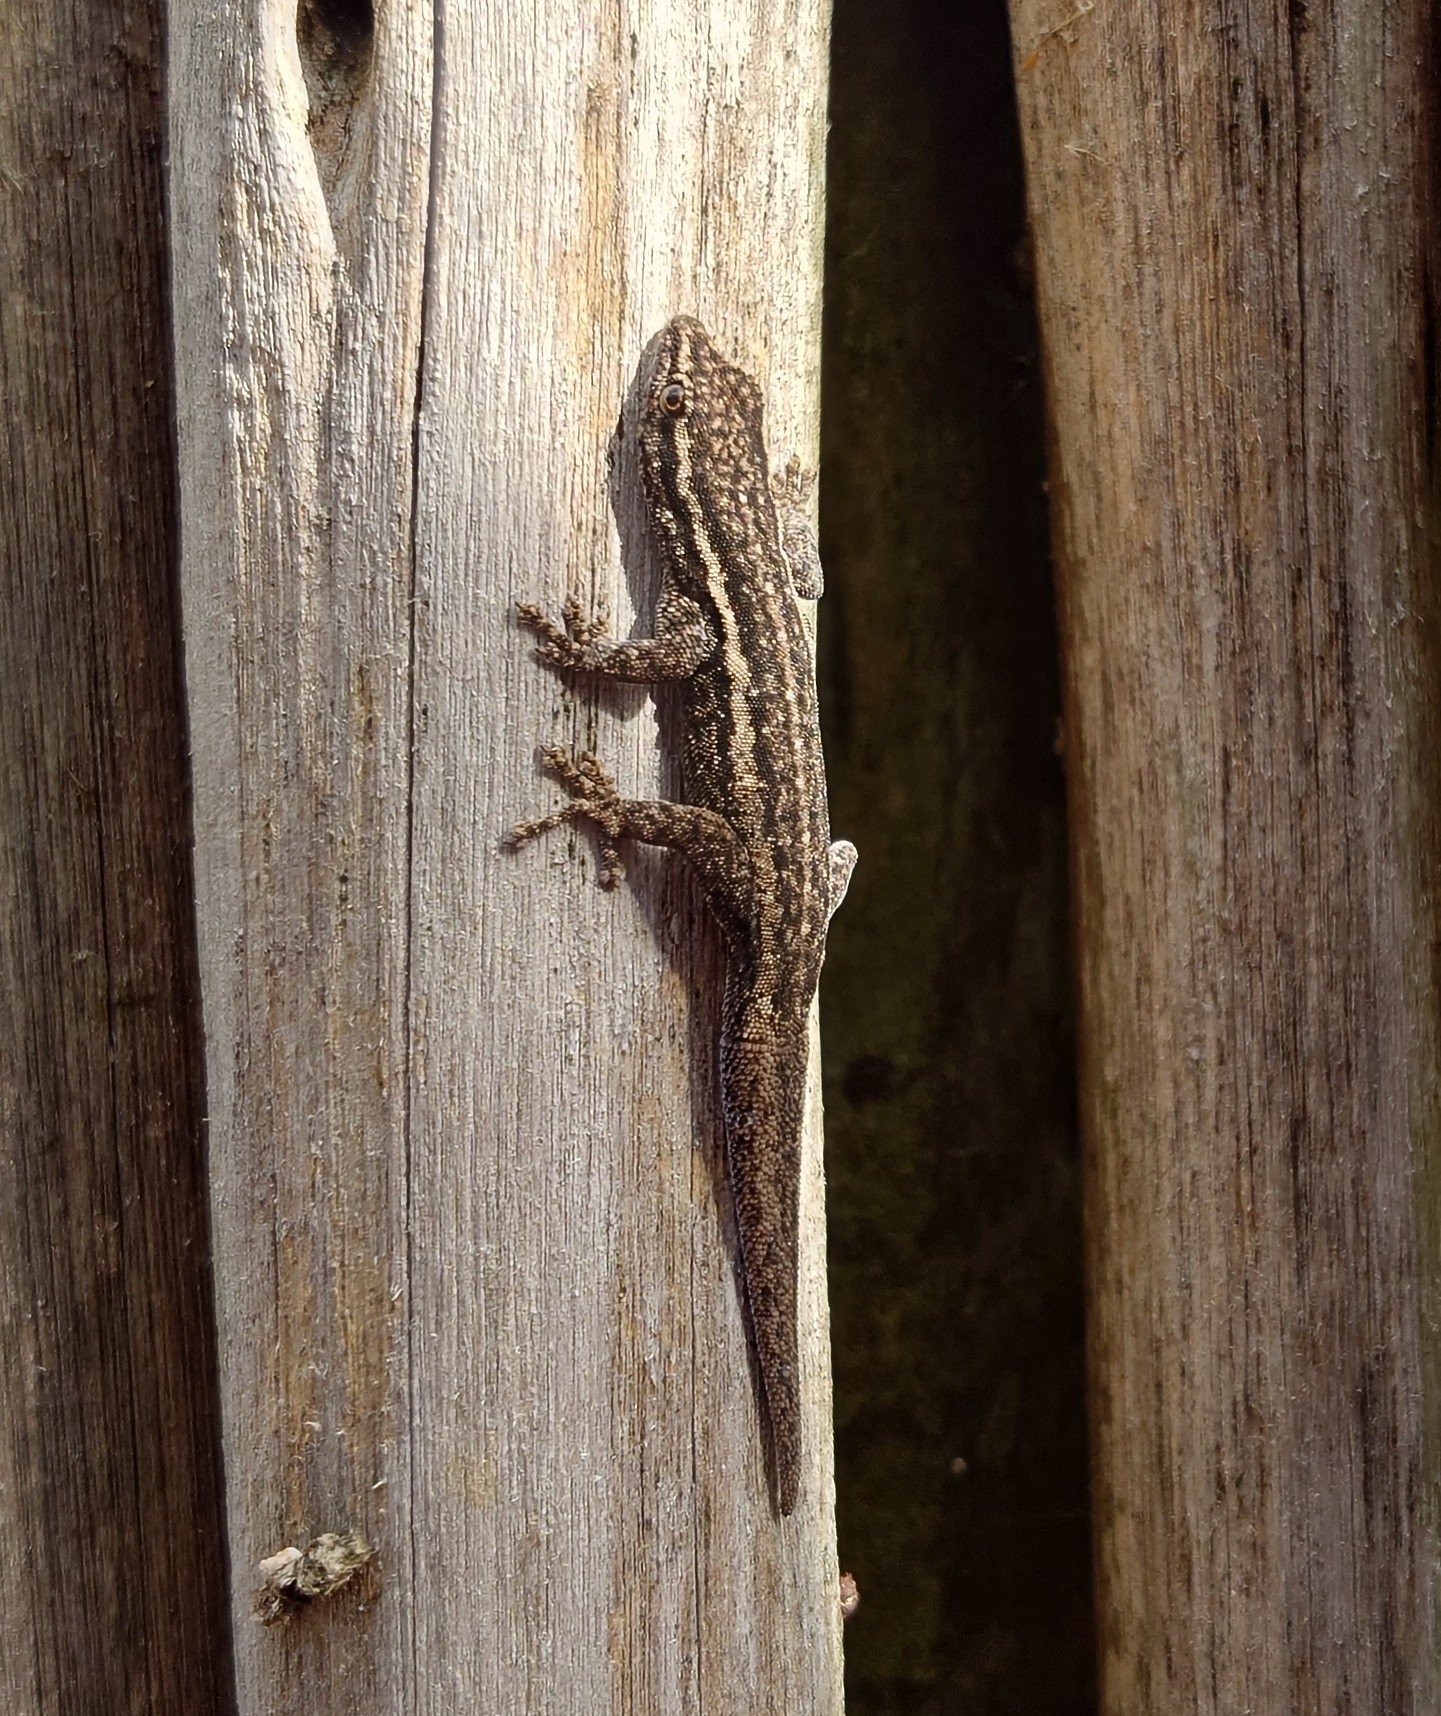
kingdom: Animalia
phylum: Chordata
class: Squamata
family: Gekkonidae
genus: Lygodactylus
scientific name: Lygodactylus capensis
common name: Cape dwarf gecko
